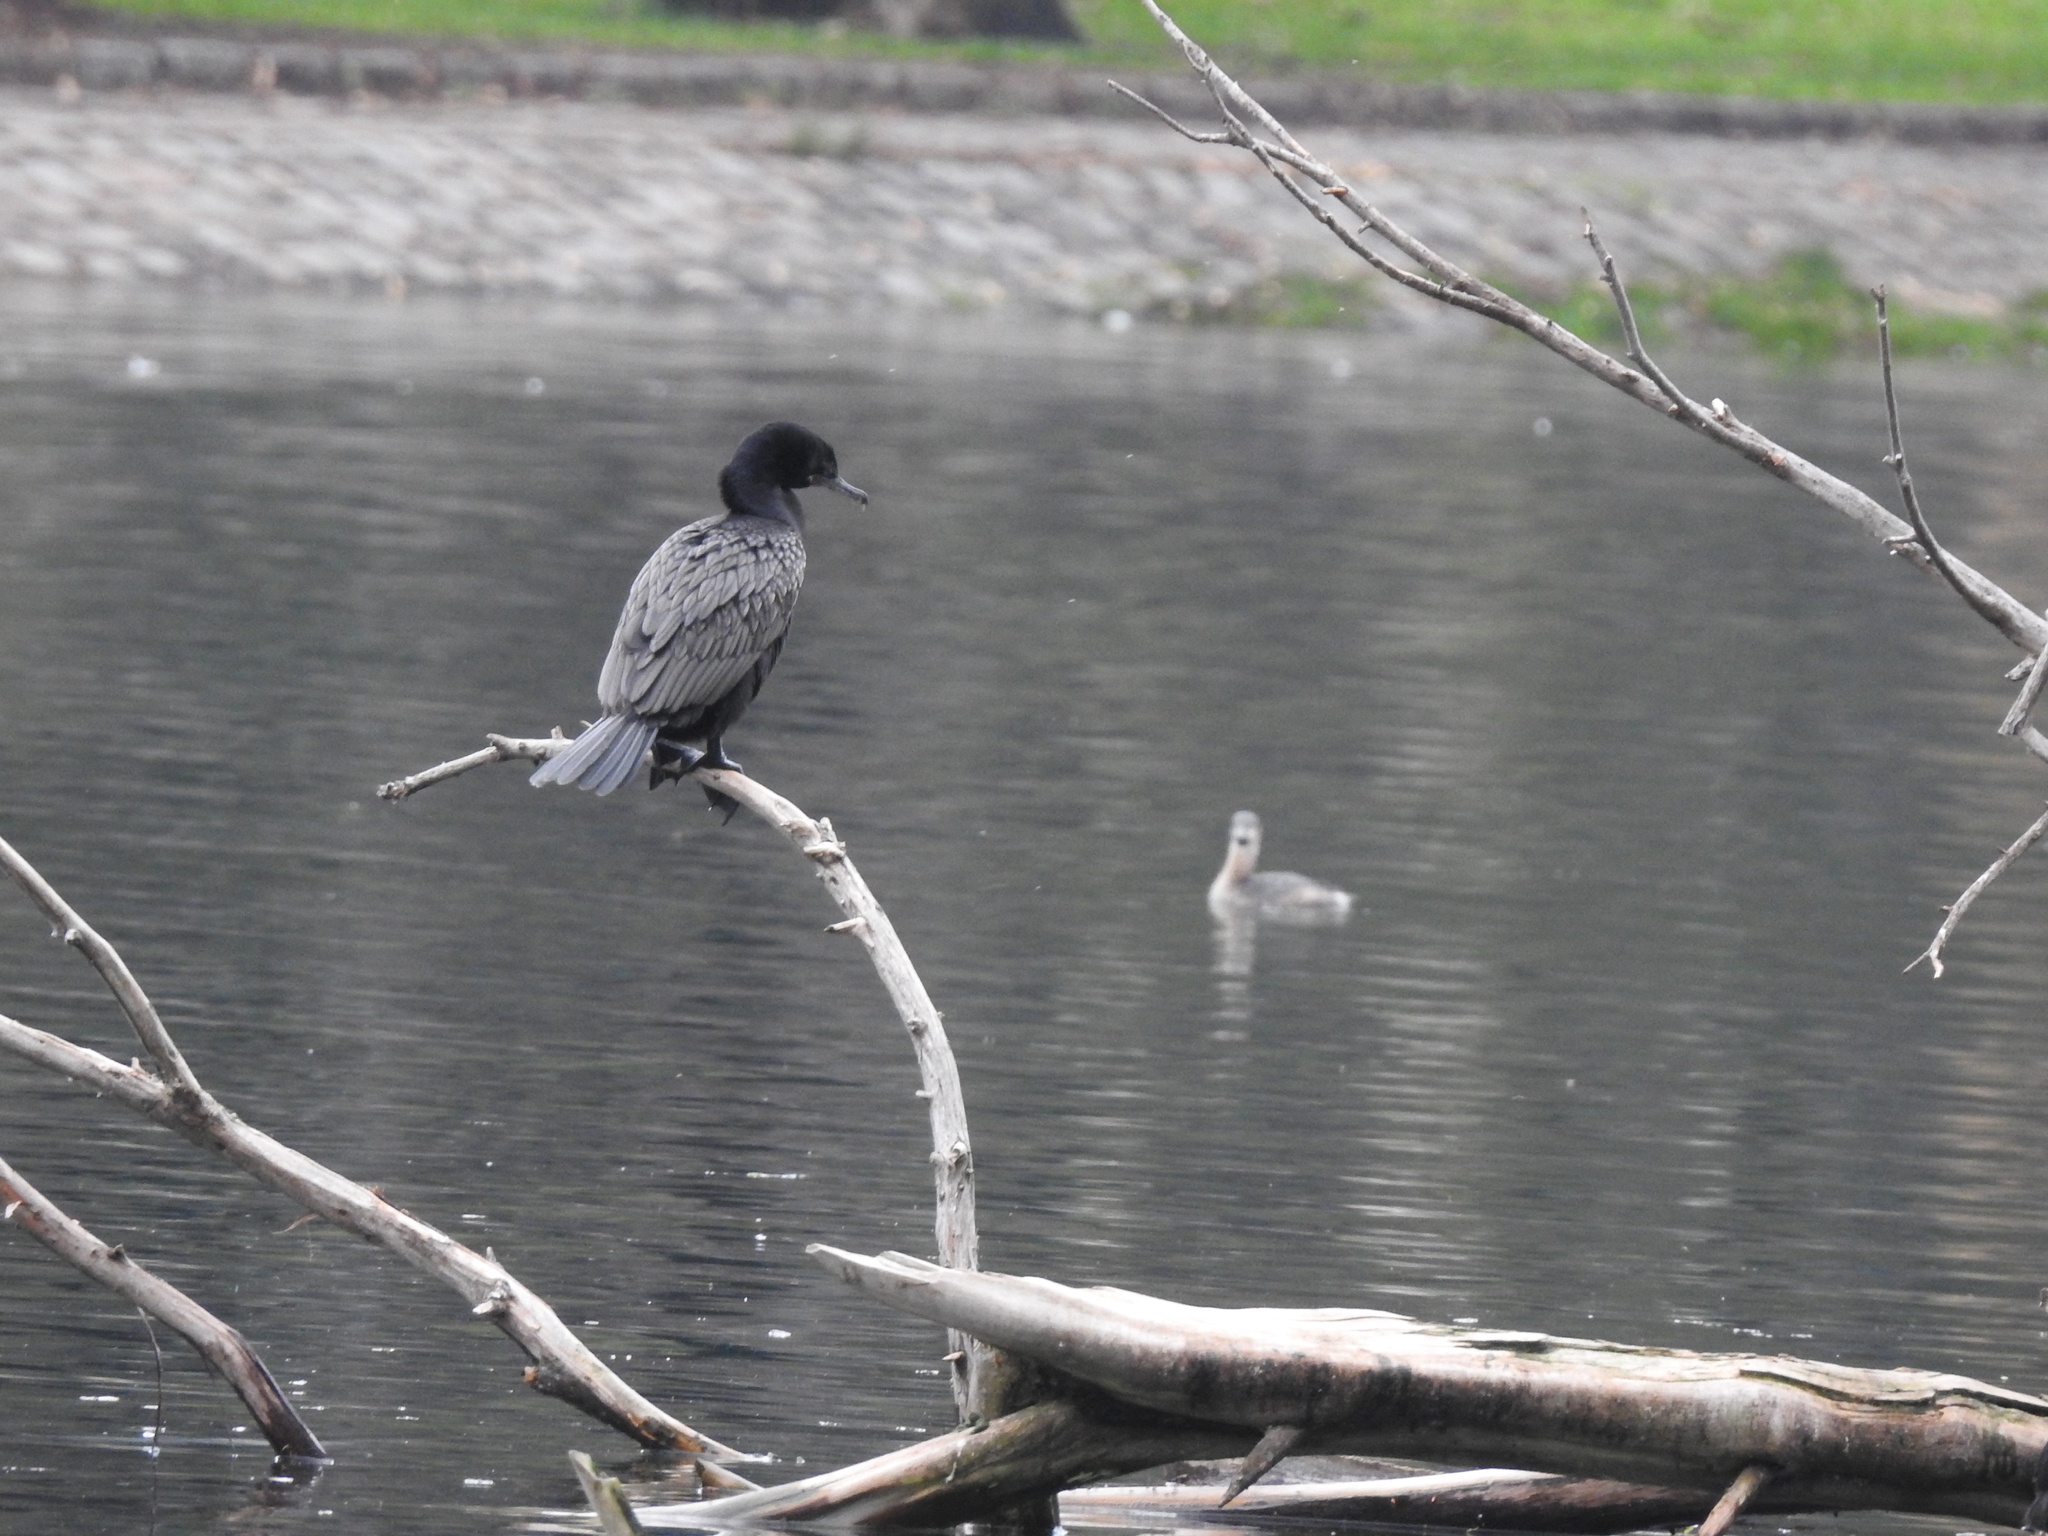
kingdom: Animalia
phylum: Chordata
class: Aves
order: Suliformes
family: Phalacrocoracidae
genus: Phalacrocorax
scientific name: Phalacrocorax brasilianus
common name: Neotropic cormorant
